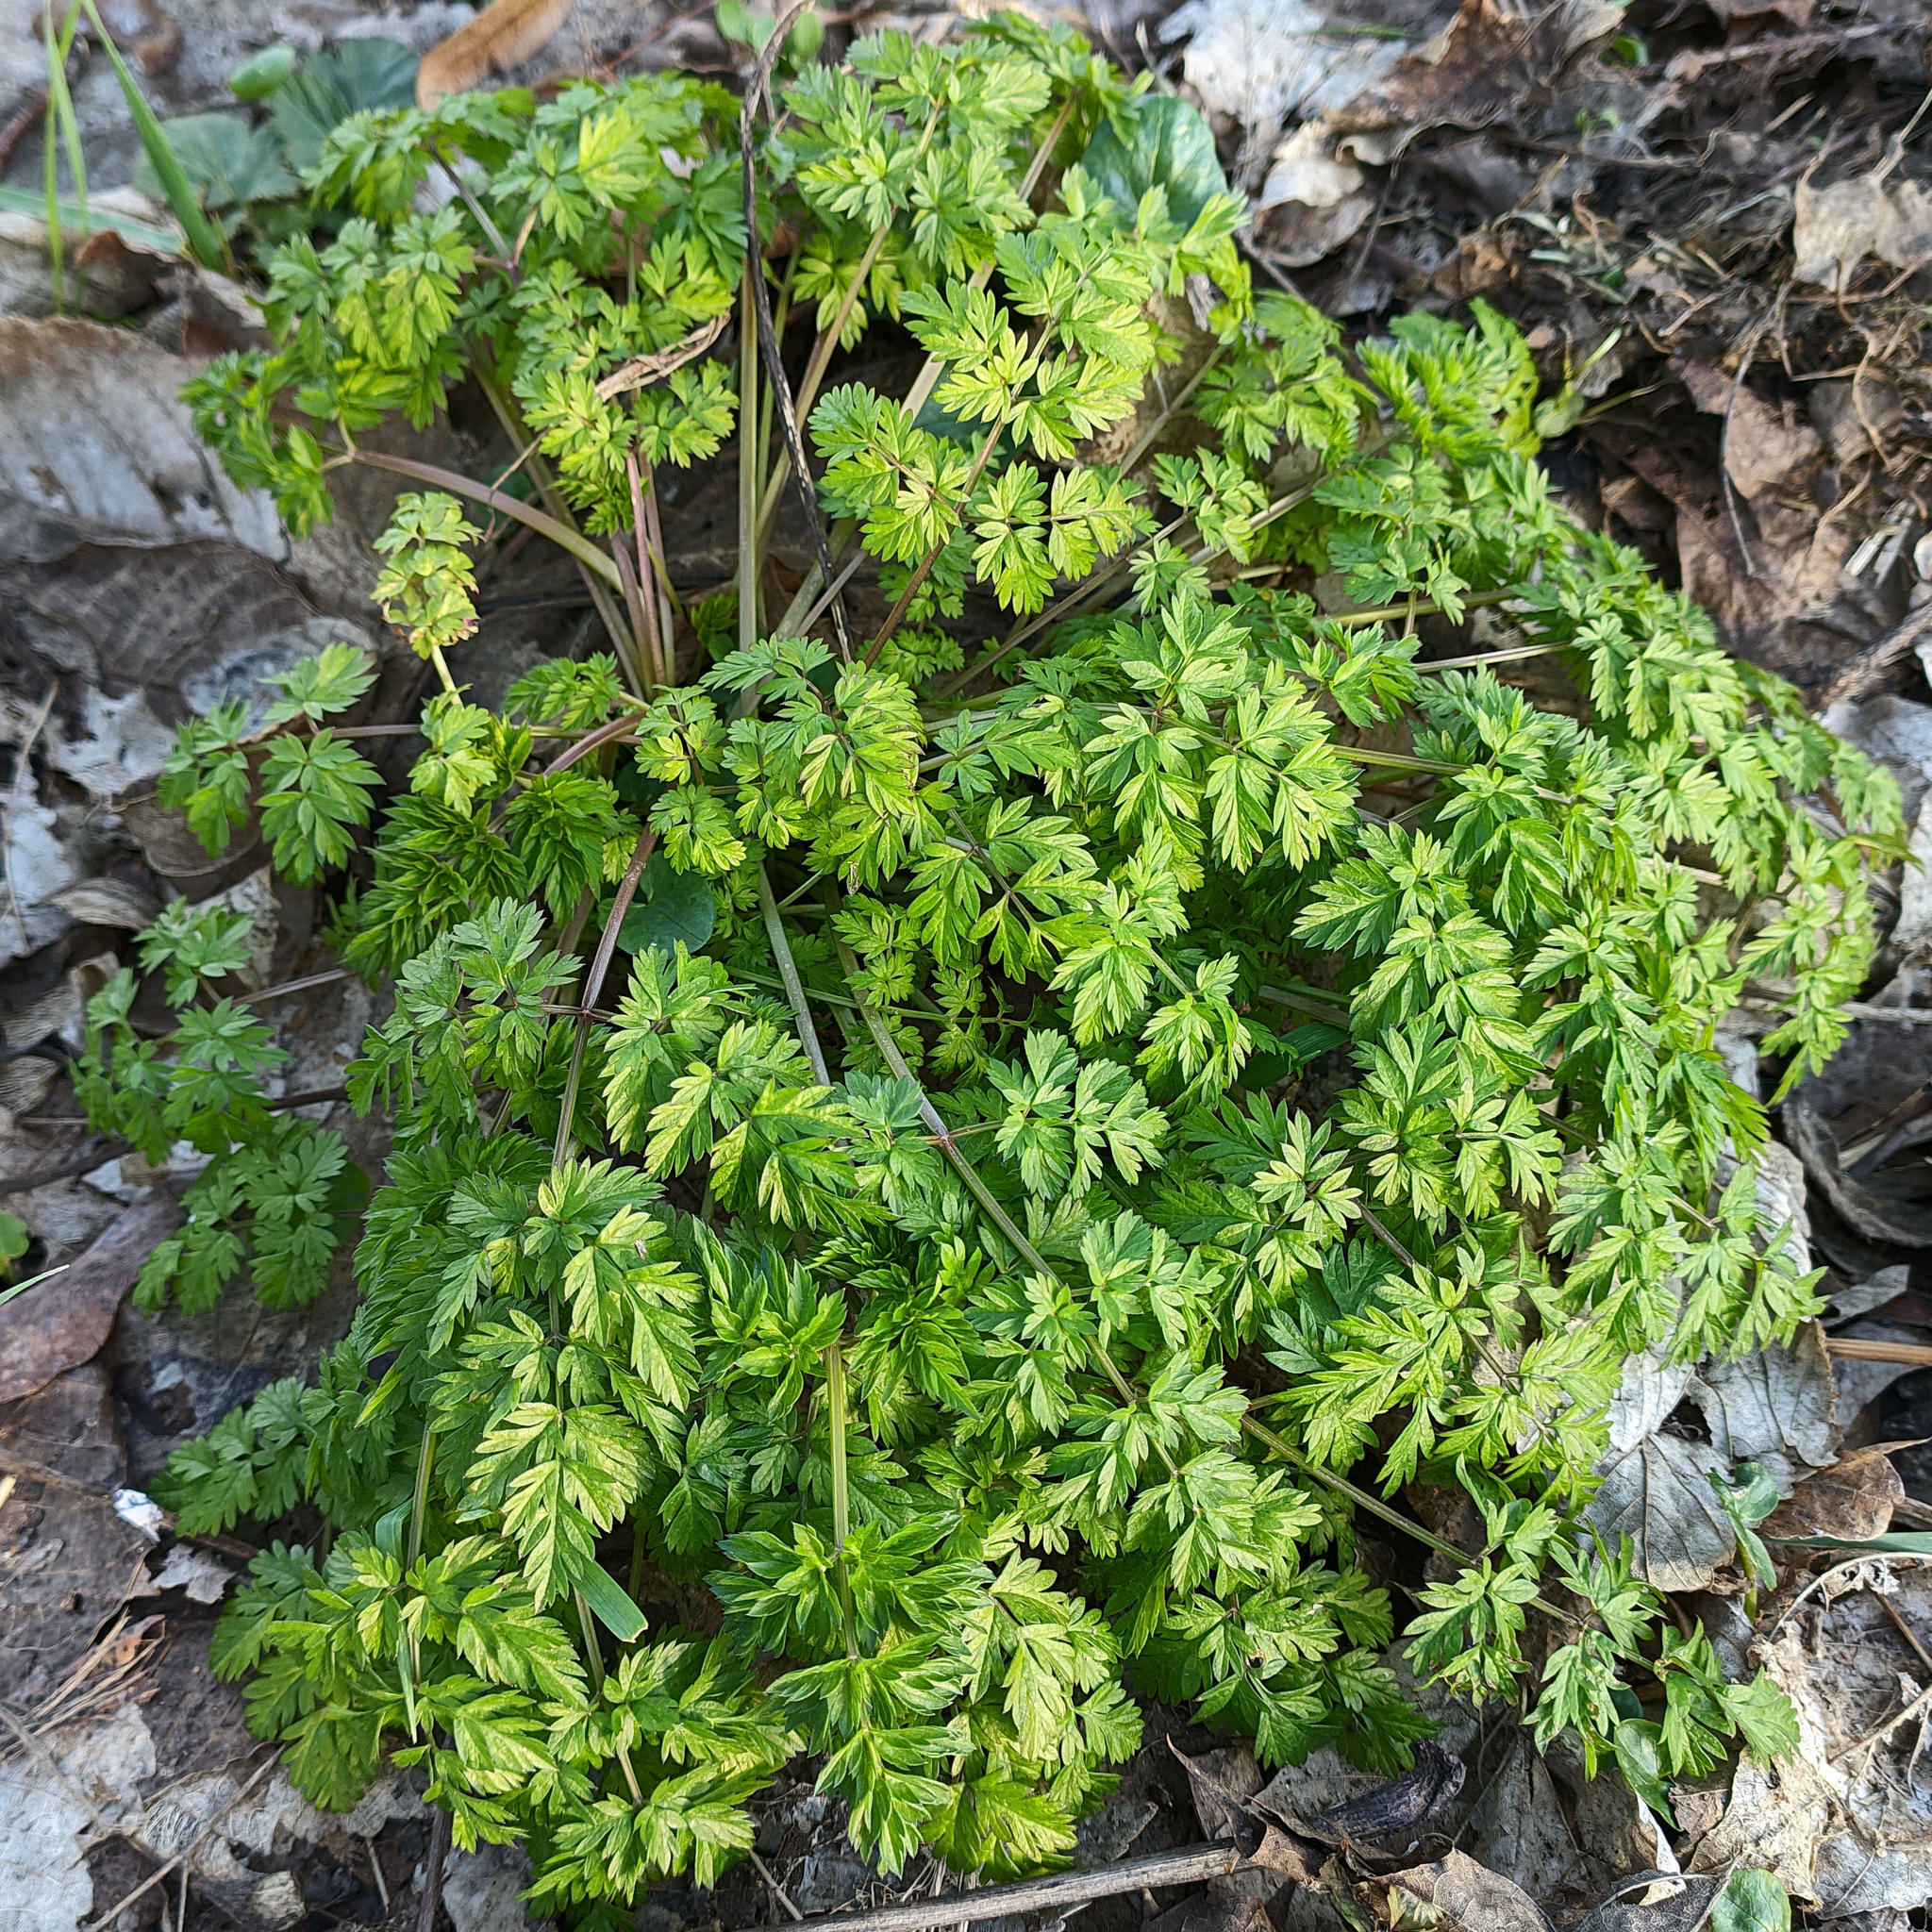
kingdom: Plantae
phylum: Tracheophyta
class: Magnoliopsida
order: Apiales
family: Apiaceae
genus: Anthriscus
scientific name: Anthriscus sylvestris
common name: Cow parsley
